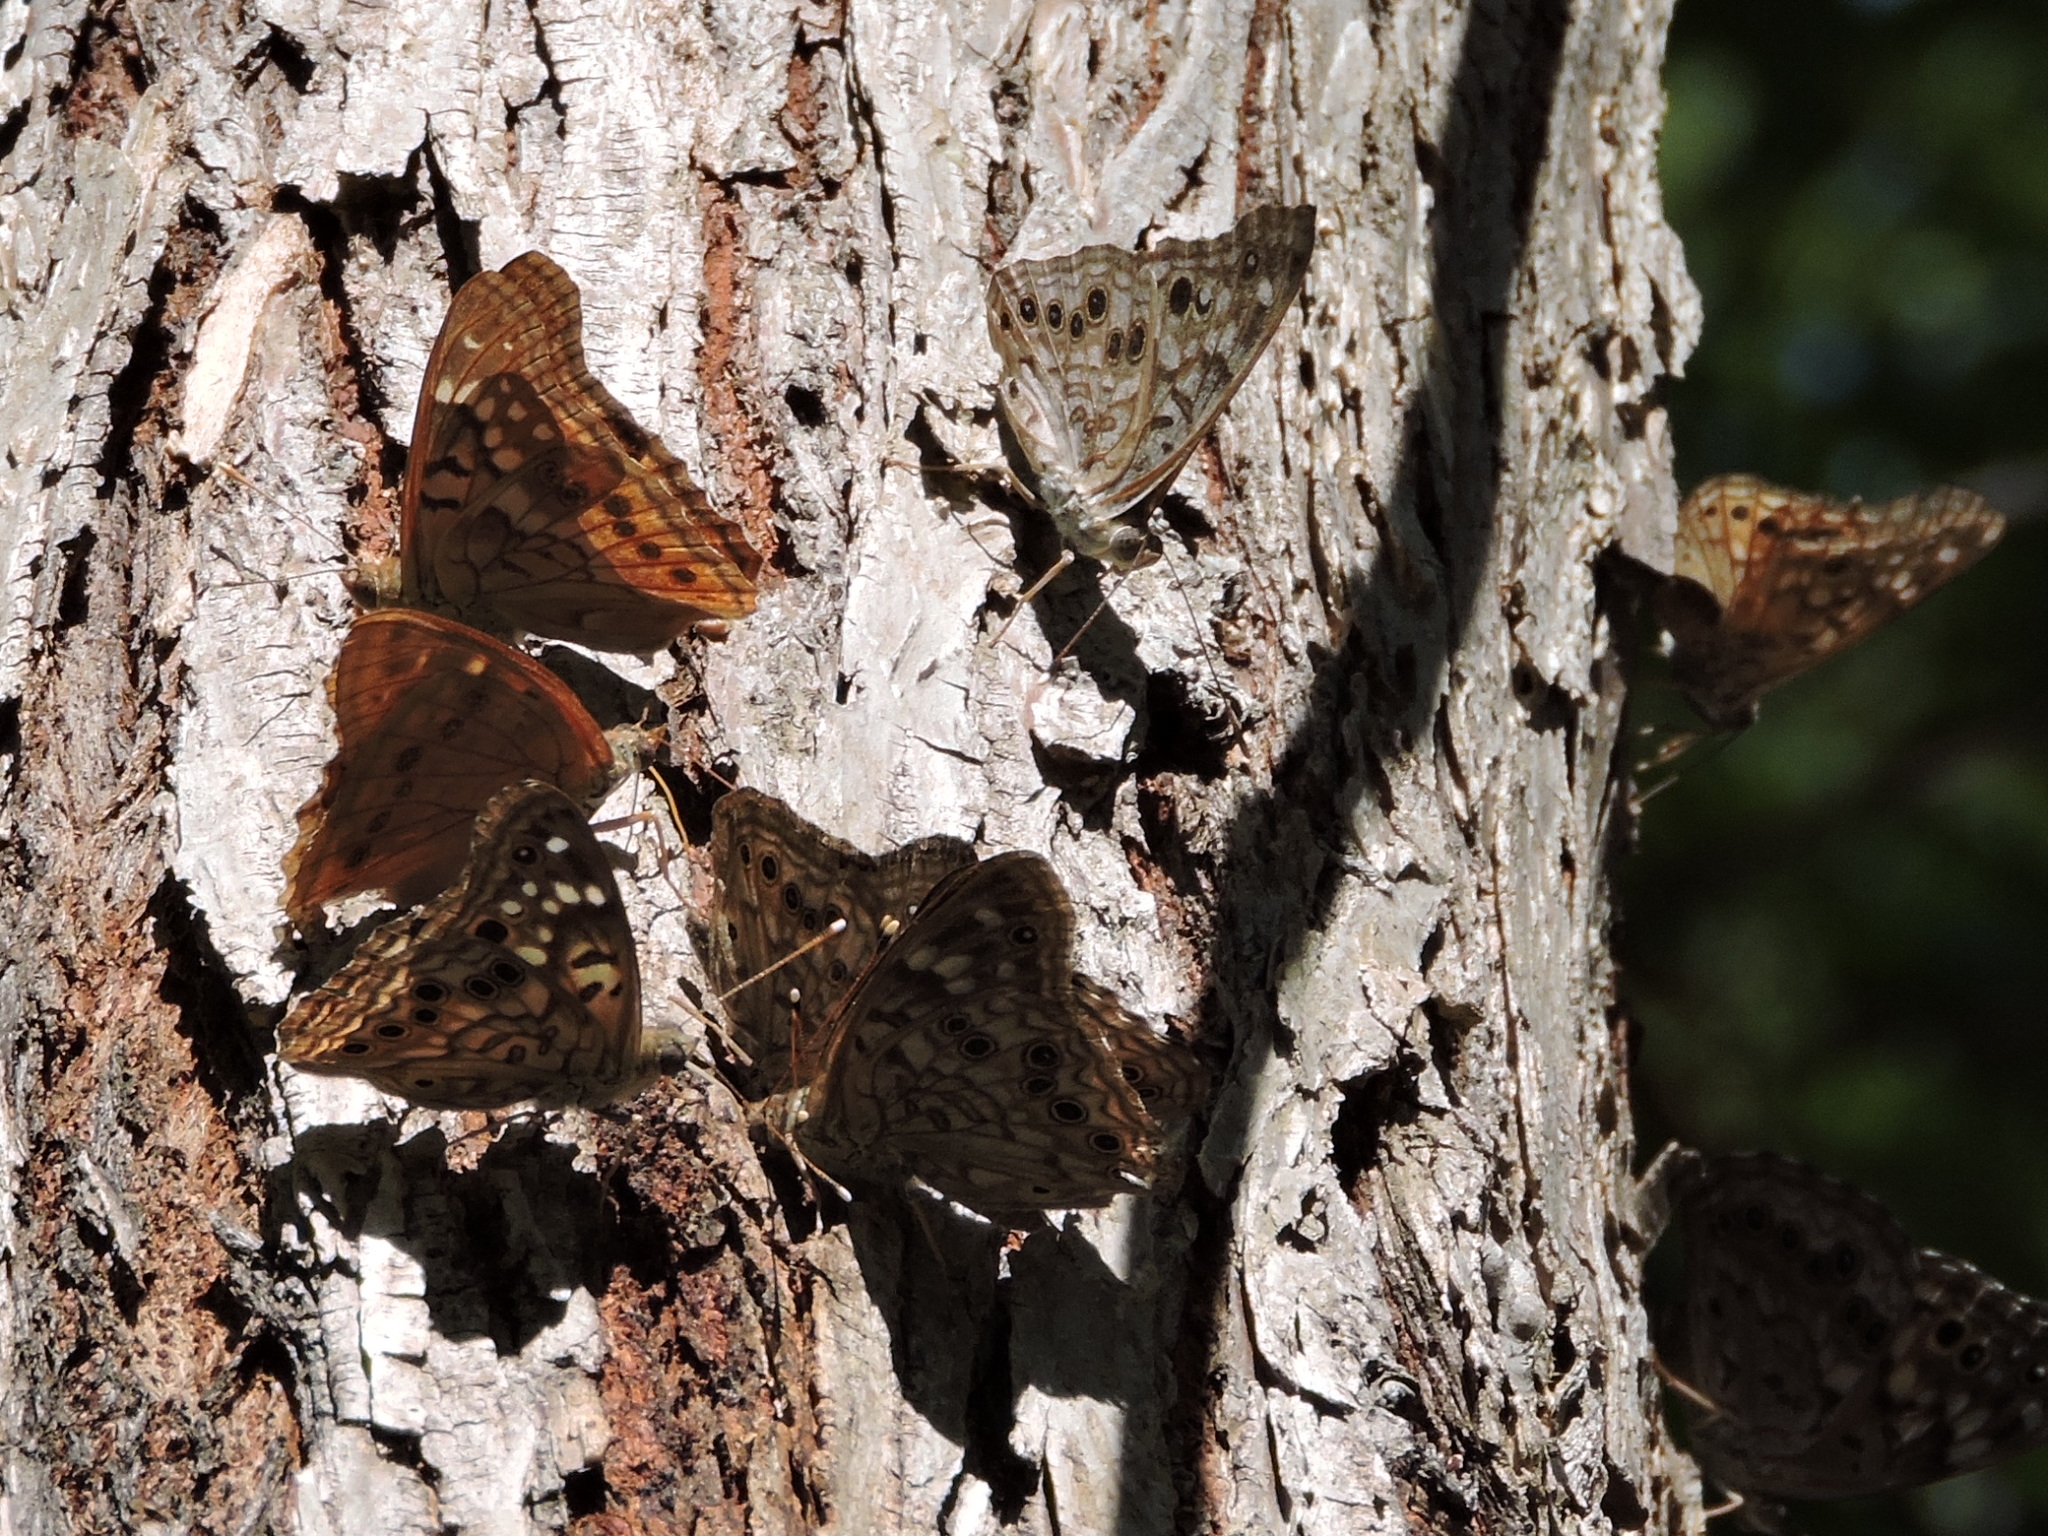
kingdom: Animalia
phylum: Arthropoda
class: Insecta
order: Lepidoptera
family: Nymphalidae
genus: Asterocampa
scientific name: Asterocampa celtis
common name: Hackberry emperor
